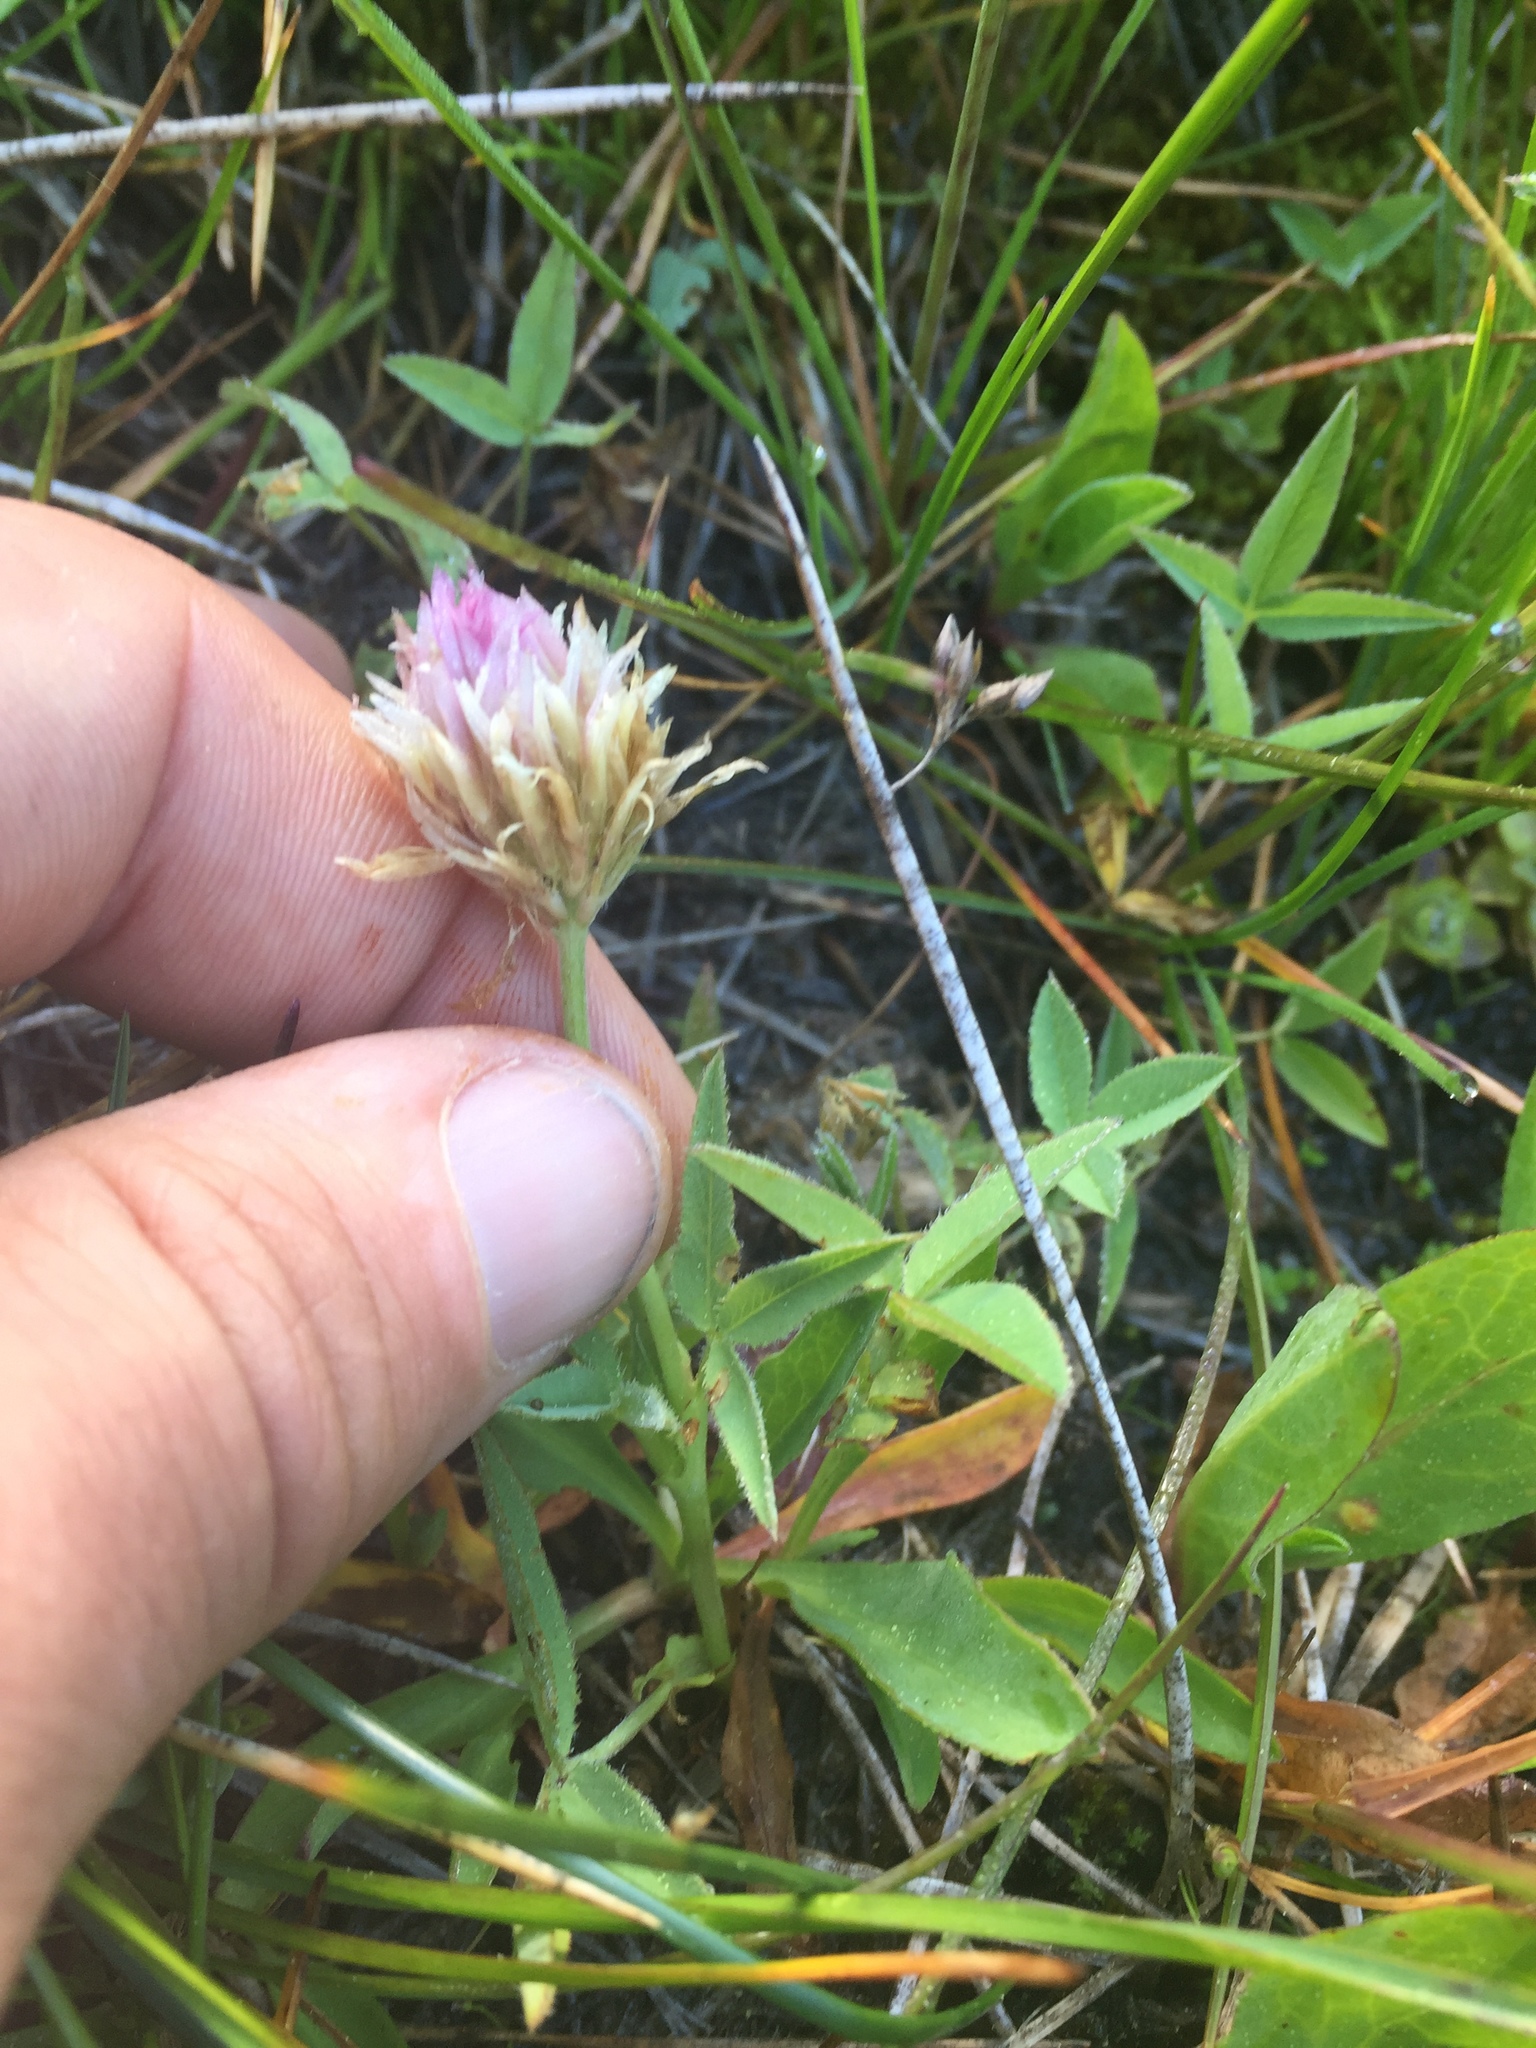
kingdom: Plantae
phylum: Tracheophyta
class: Magnoliopsida
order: Fabales
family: Fabaceae
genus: Trifolium
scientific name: Trifolium longipes
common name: Long-stalk clover
